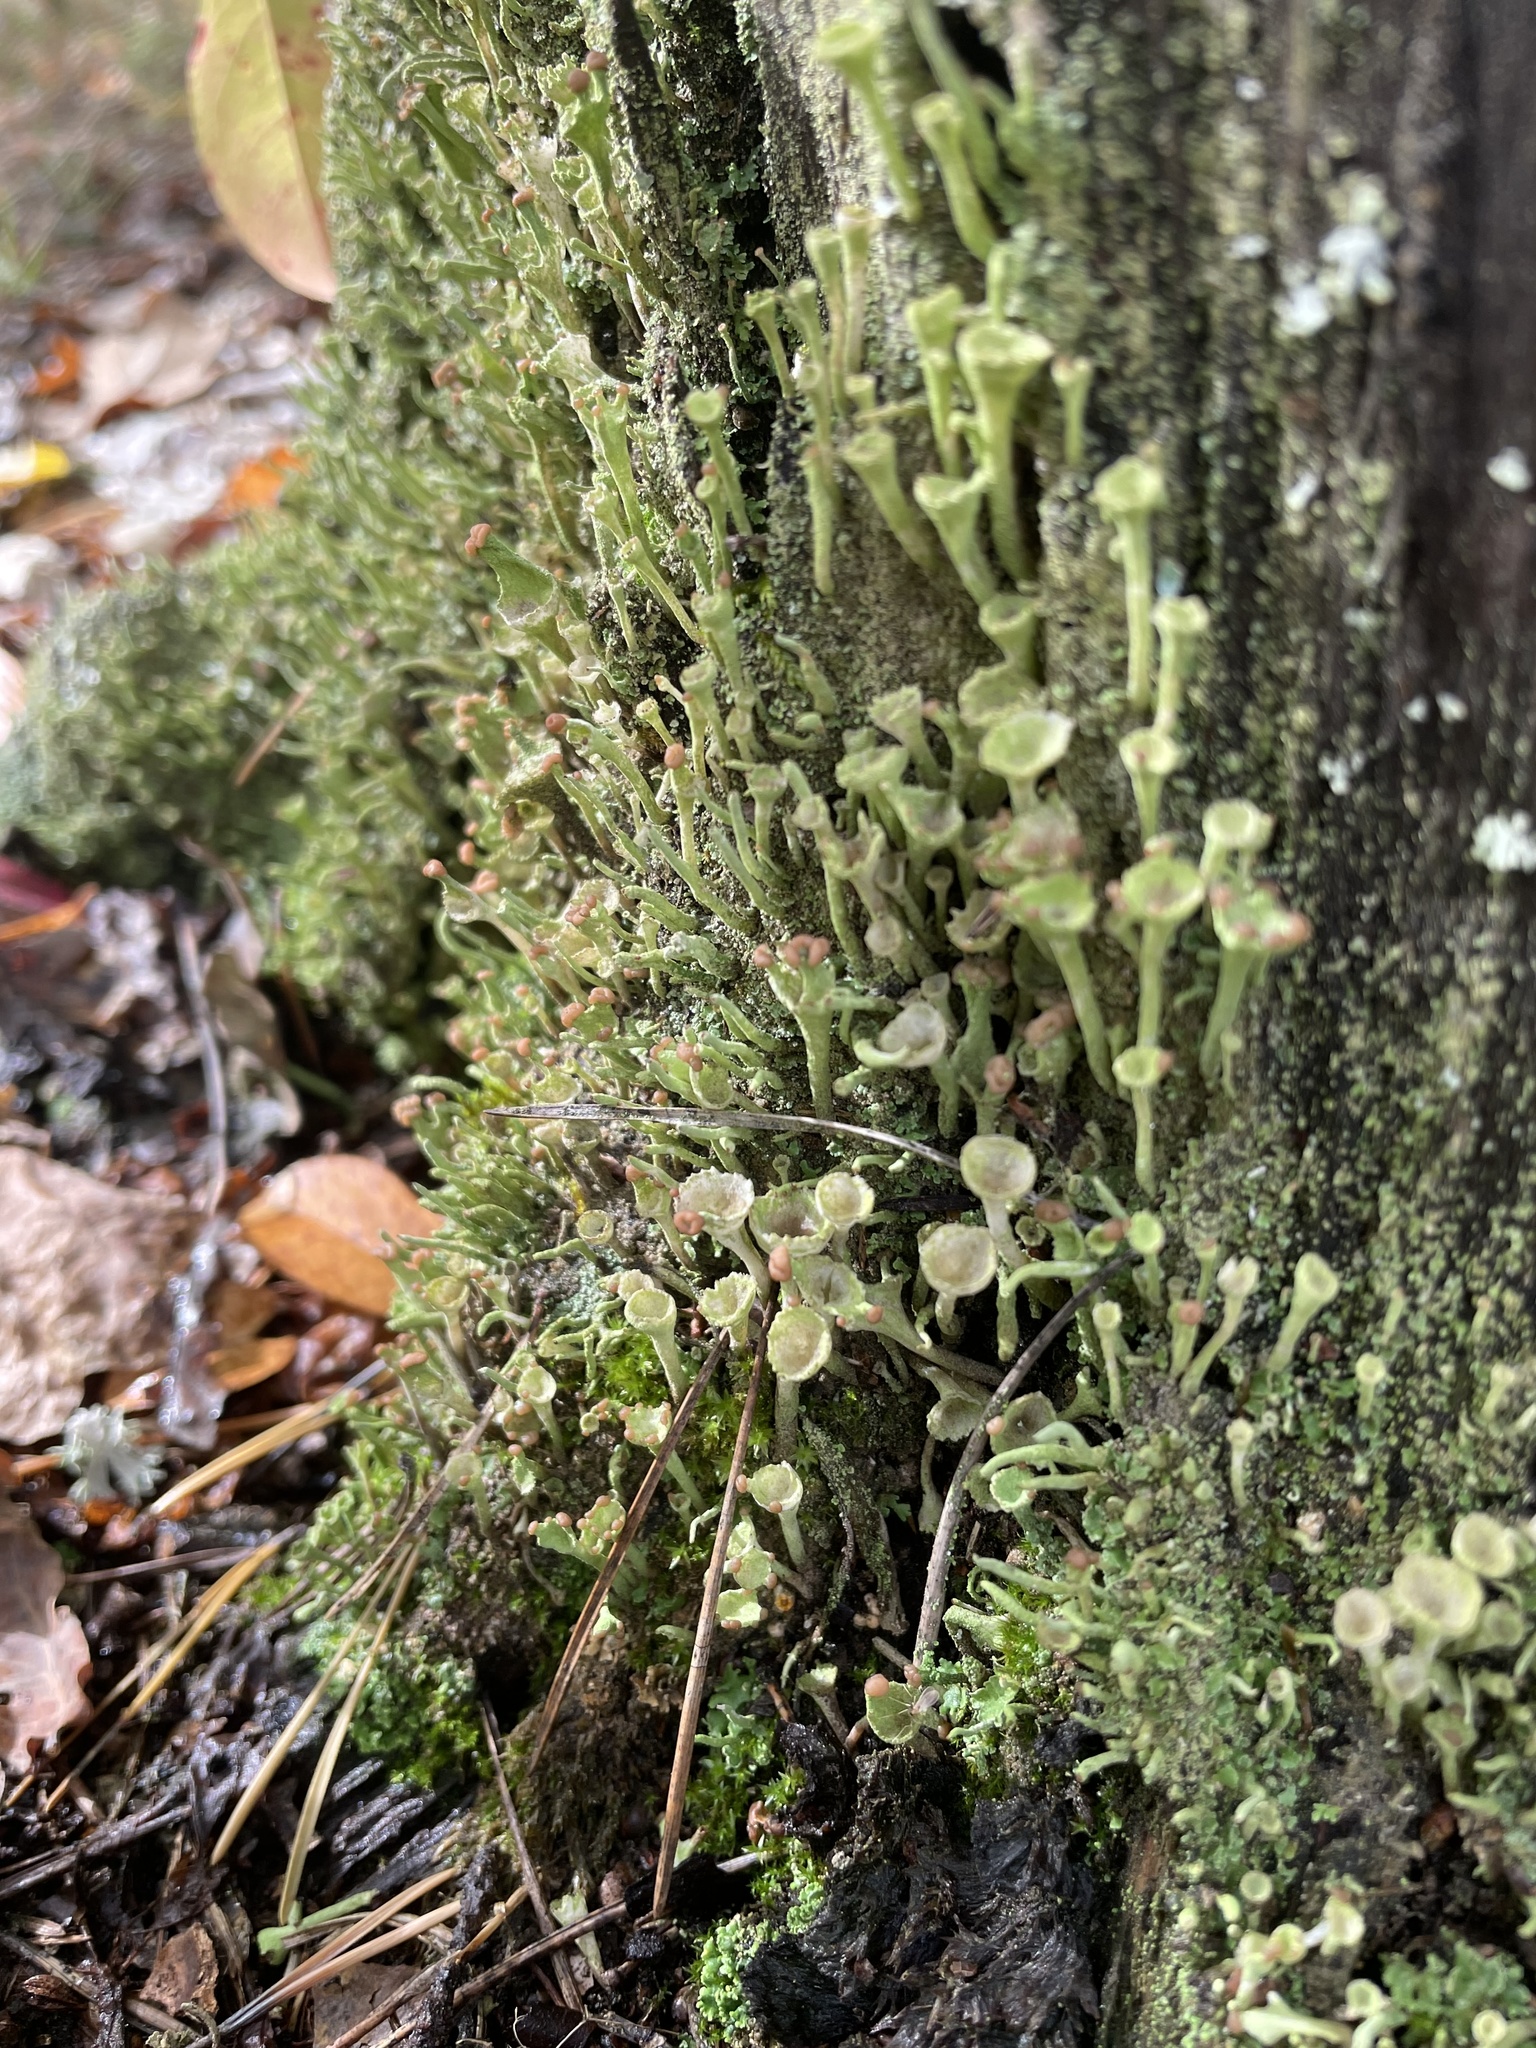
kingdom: Fungi
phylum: Ascomycota
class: Lecanoromycetes
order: Lecanorales
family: Cladoniaceae
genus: Cladonia
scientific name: Cladonia fimbriata
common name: Powdered trumpet lichen
